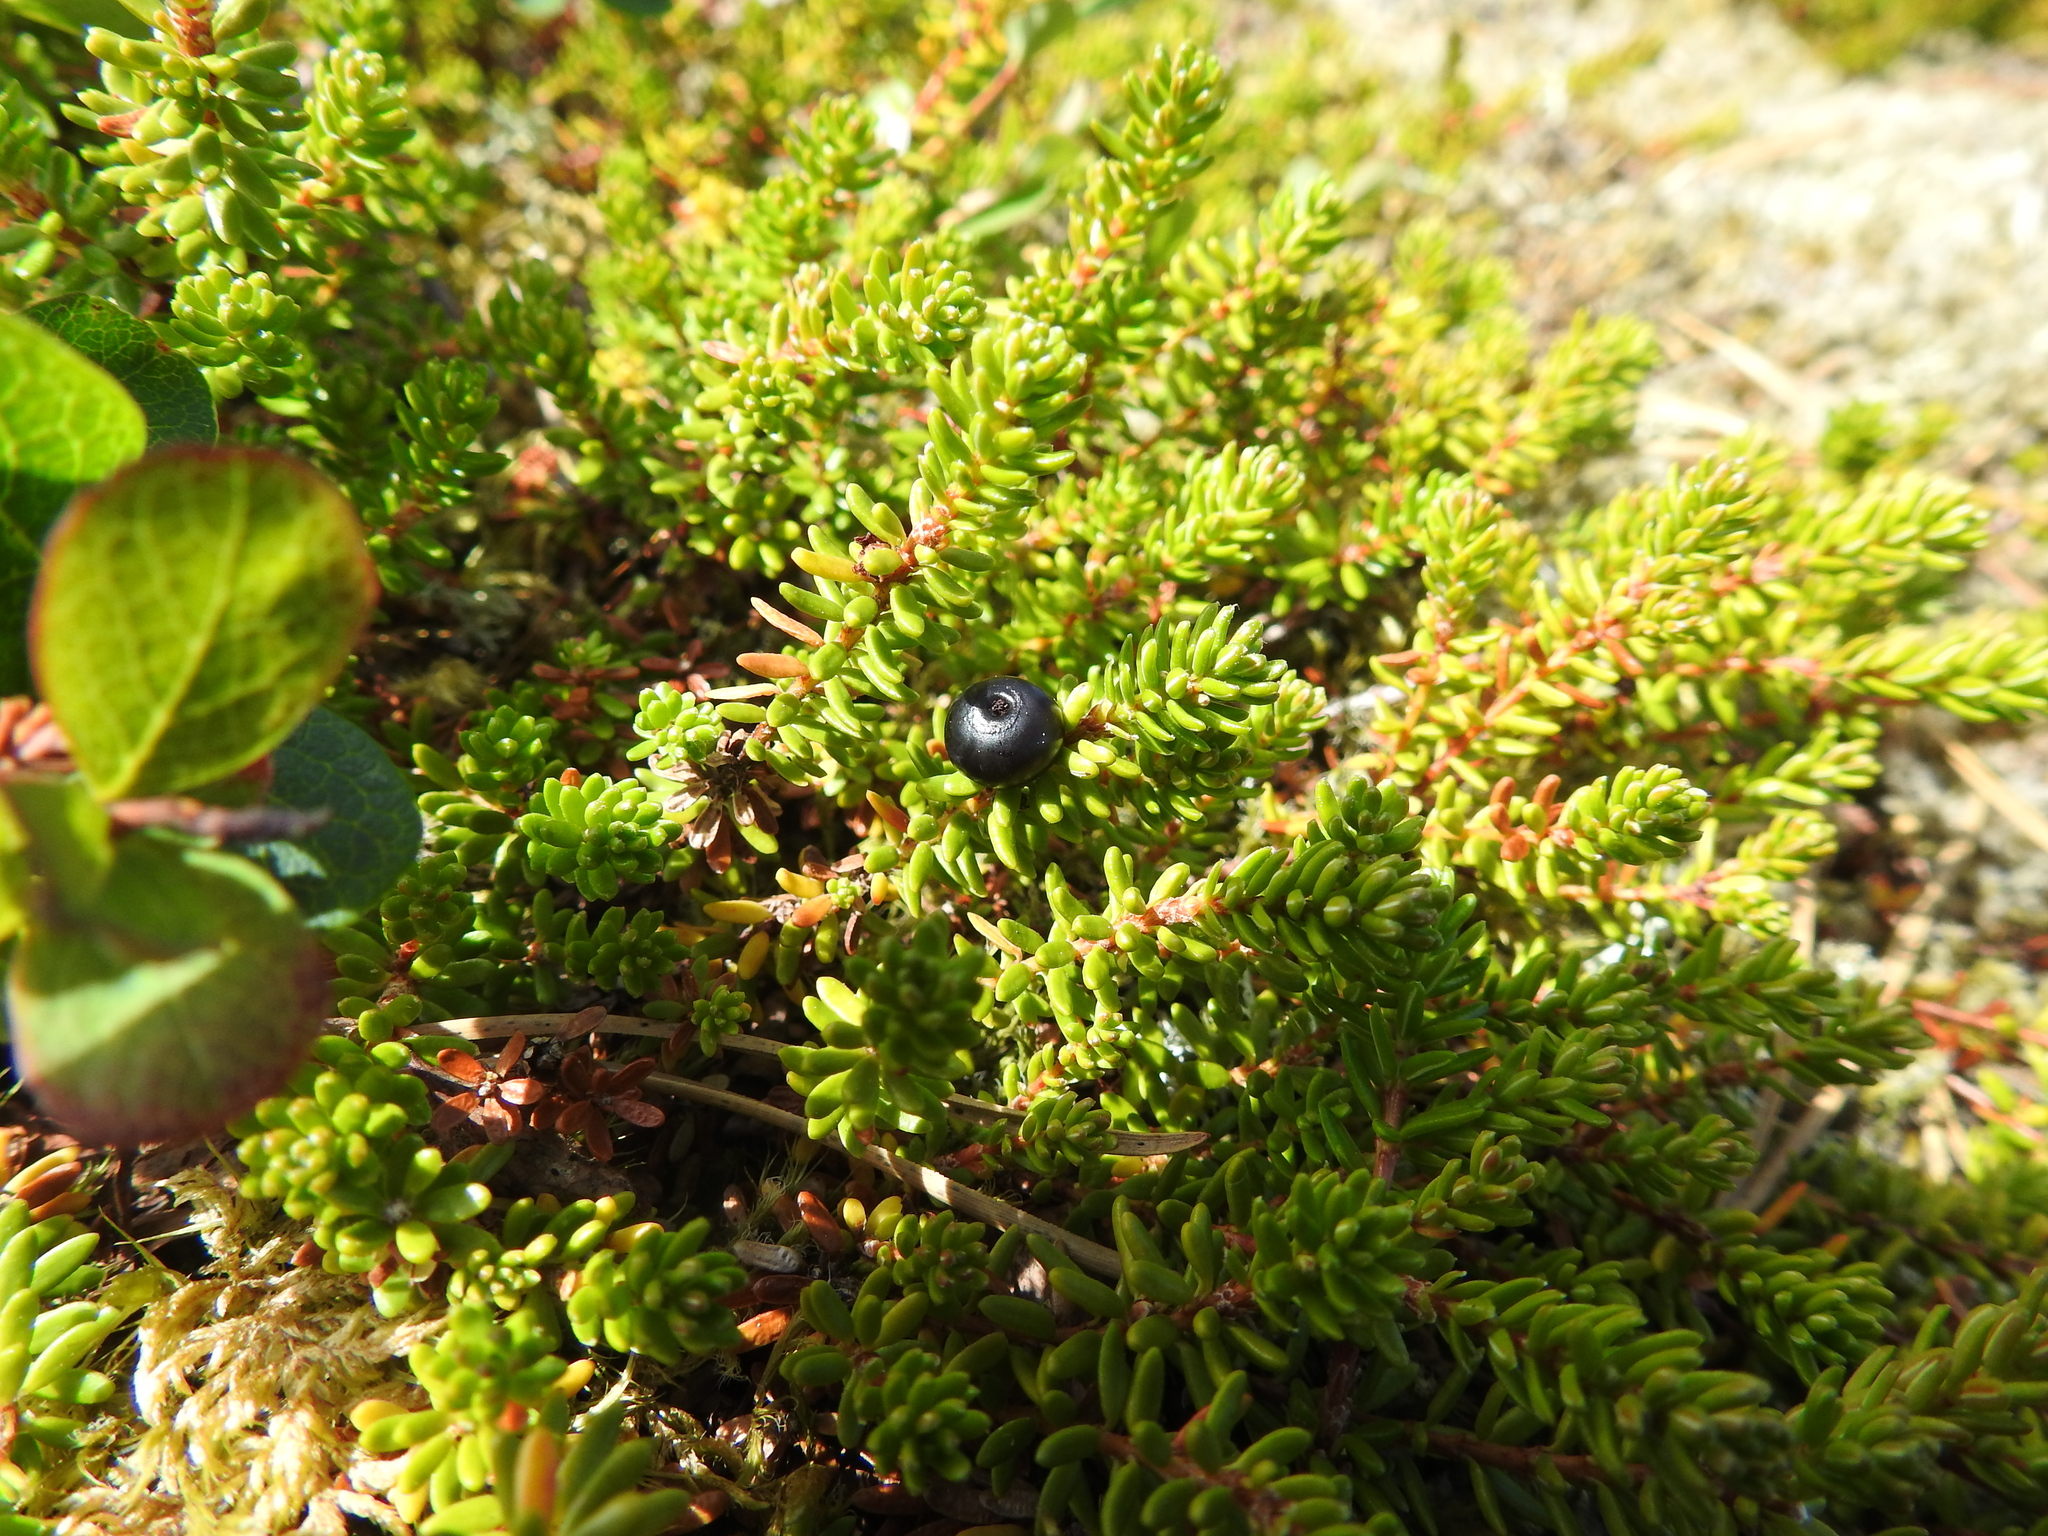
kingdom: Plantae
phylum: Tracheophyta
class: Magnoliopsida
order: Ericales
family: Ericaceae
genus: Empetrum
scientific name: Empetrum nigrum
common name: Black crowberry
